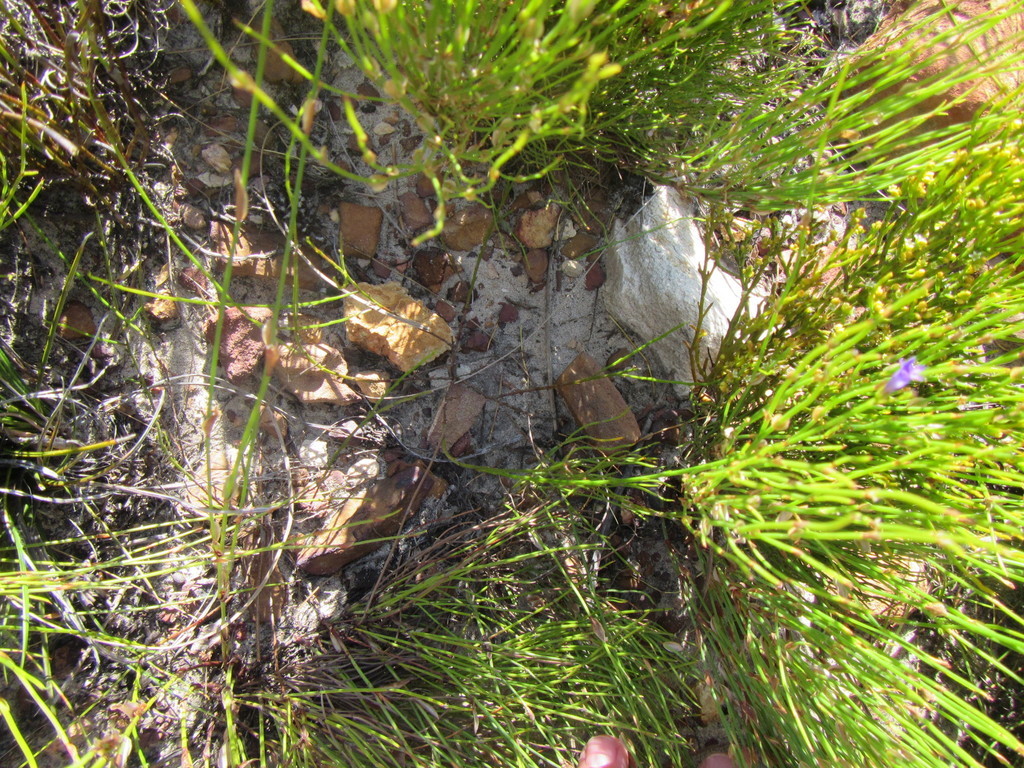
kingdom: Plantae
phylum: Tracheophyta
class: Magnoliopsida
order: Asterales
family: Campanulaceae
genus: Siphocodon
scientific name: Siphocodon spartioides
